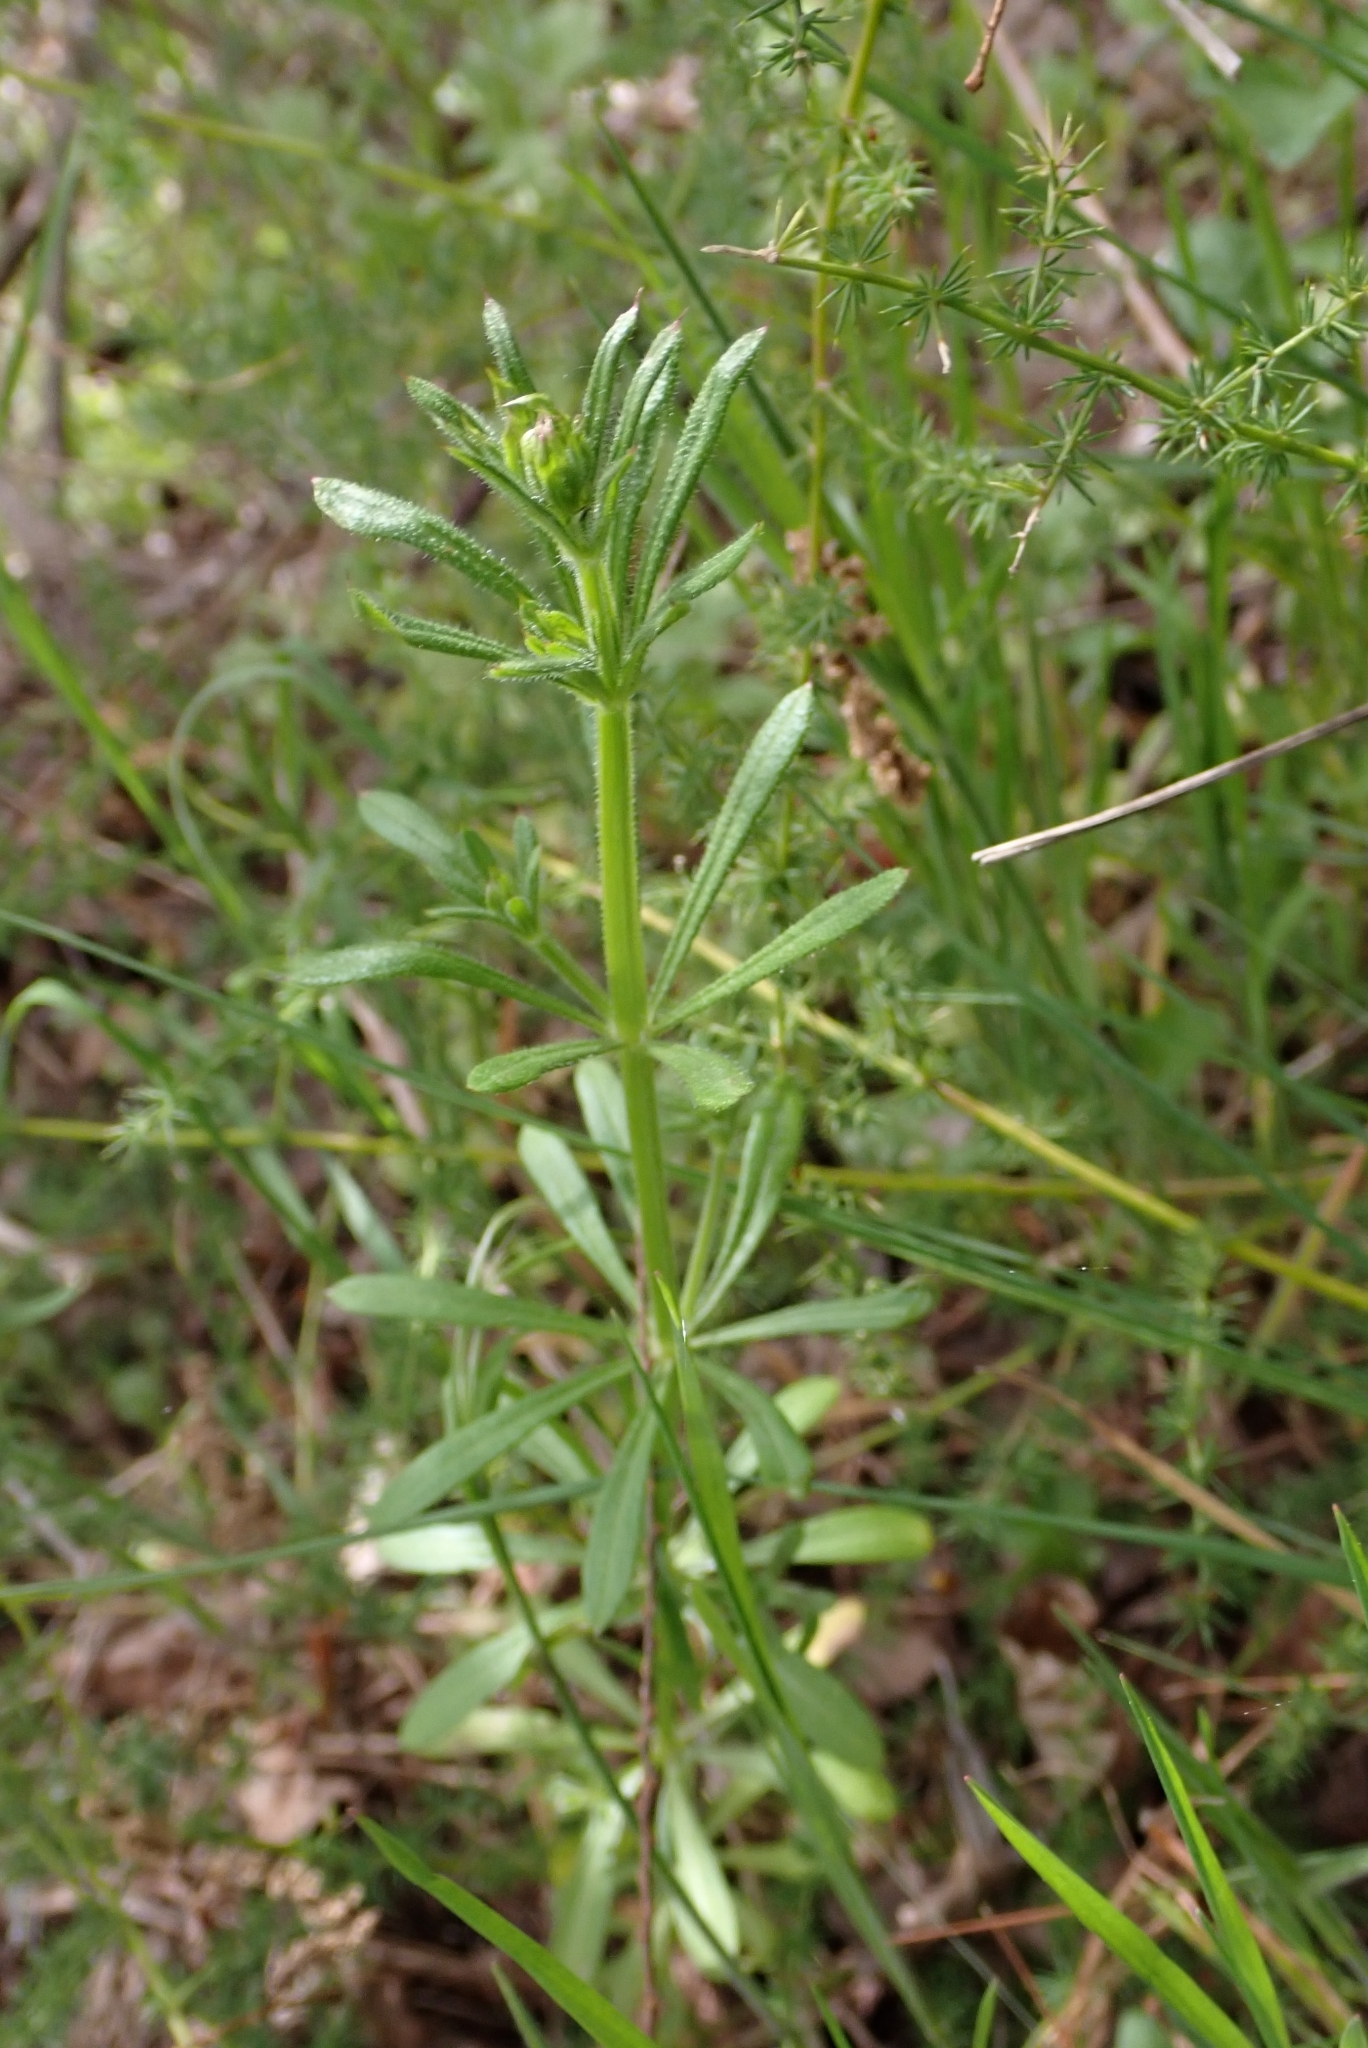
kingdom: Plantae
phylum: Tracheophyta
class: Magnoliopsida
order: Gentianales
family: Rubiaceae
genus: Galium
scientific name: Galium aparine
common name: Cleavers
